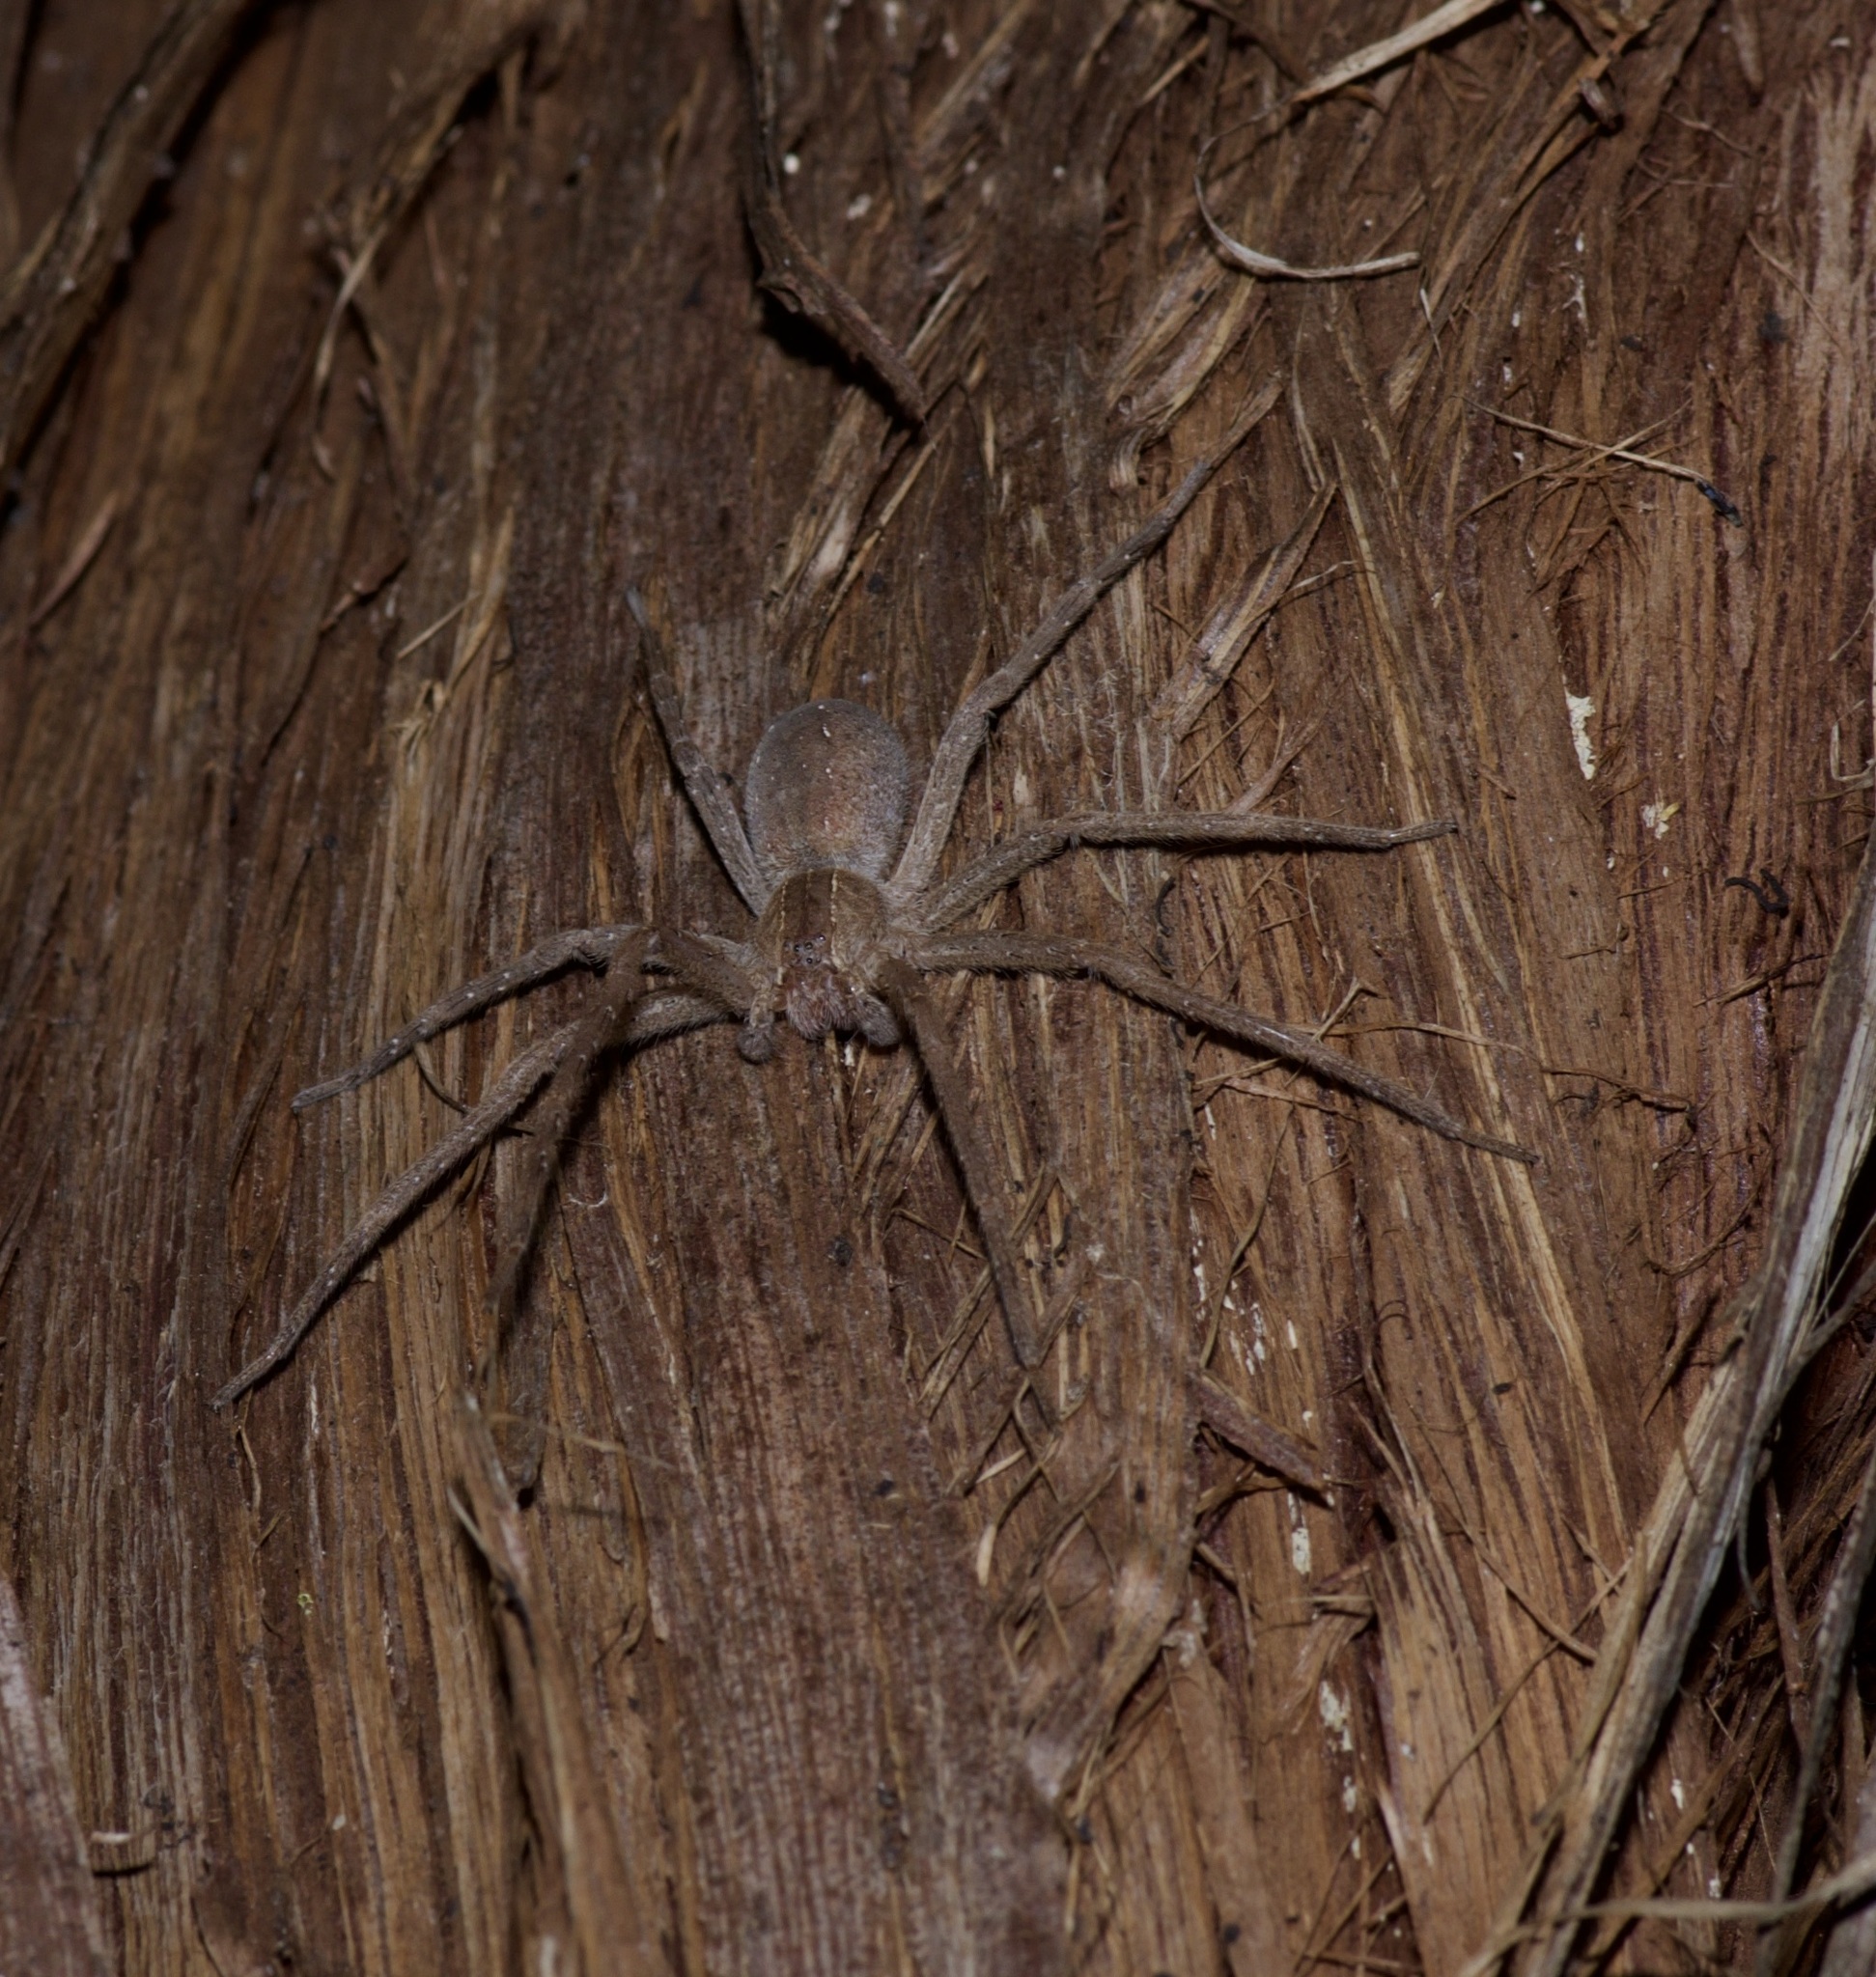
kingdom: Animalia
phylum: Arthropoda
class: Arachnida
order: Araneae
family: Pisauridae
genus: Pisaurina
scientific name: Pisaurina mira
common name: American nursery web spider
